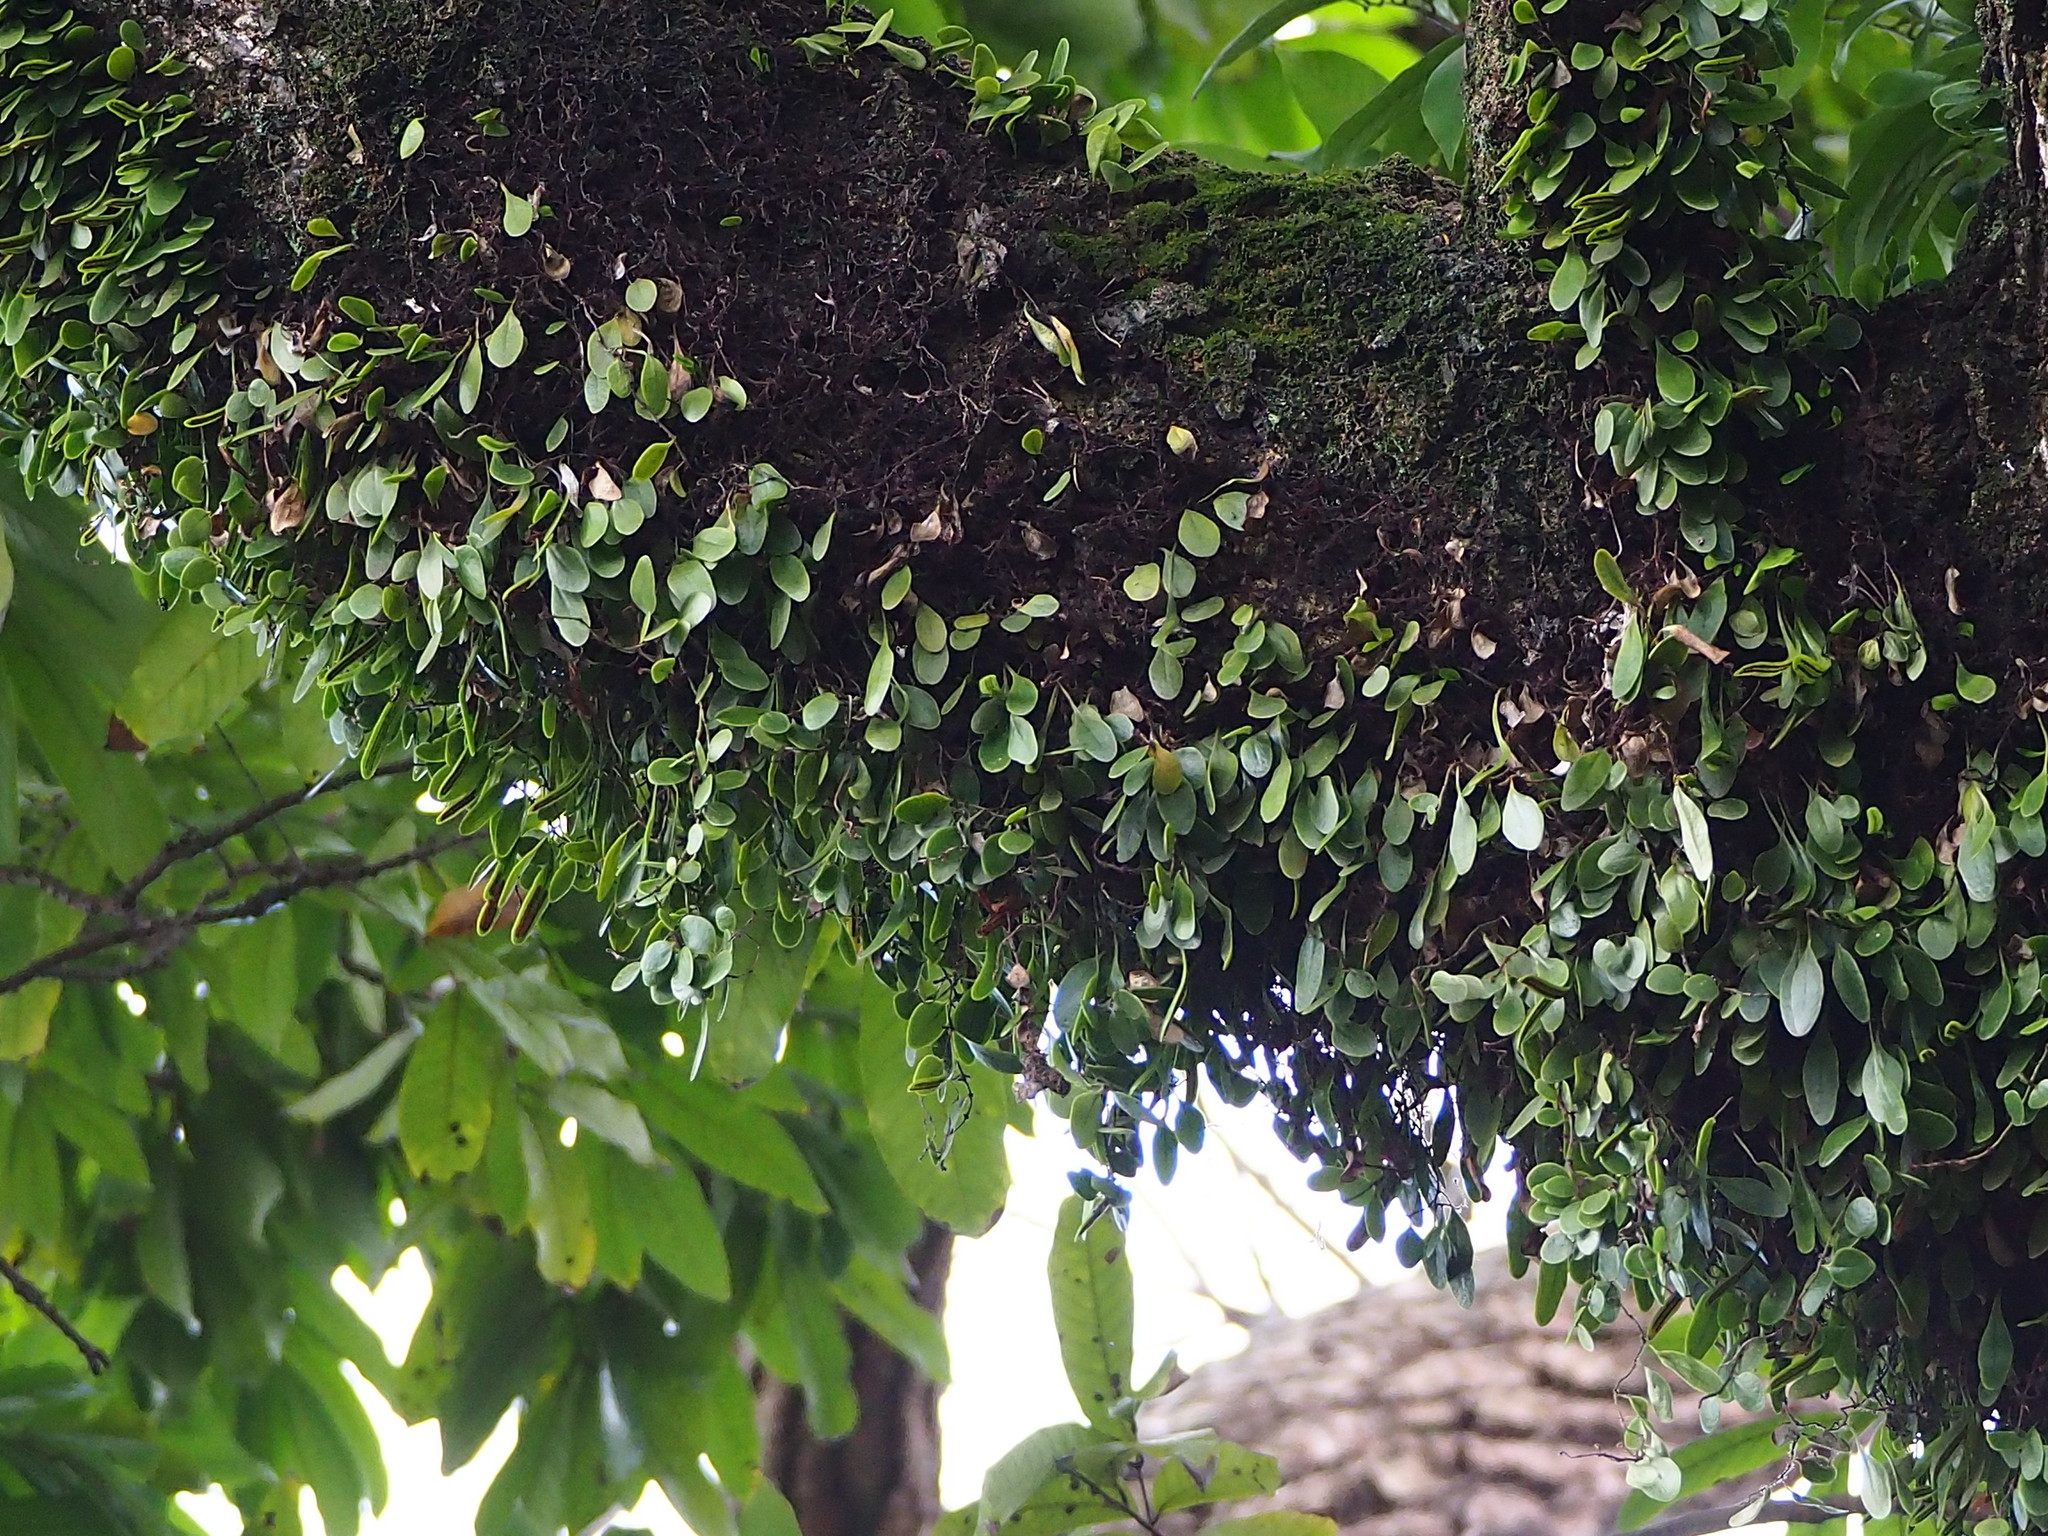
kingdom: Plantae
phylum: Tracheophyta
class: Polypodiopsida
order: Polypodiales
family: Polypodiaceae
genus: Lepisorus
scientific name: Lepisorus microphyllus
